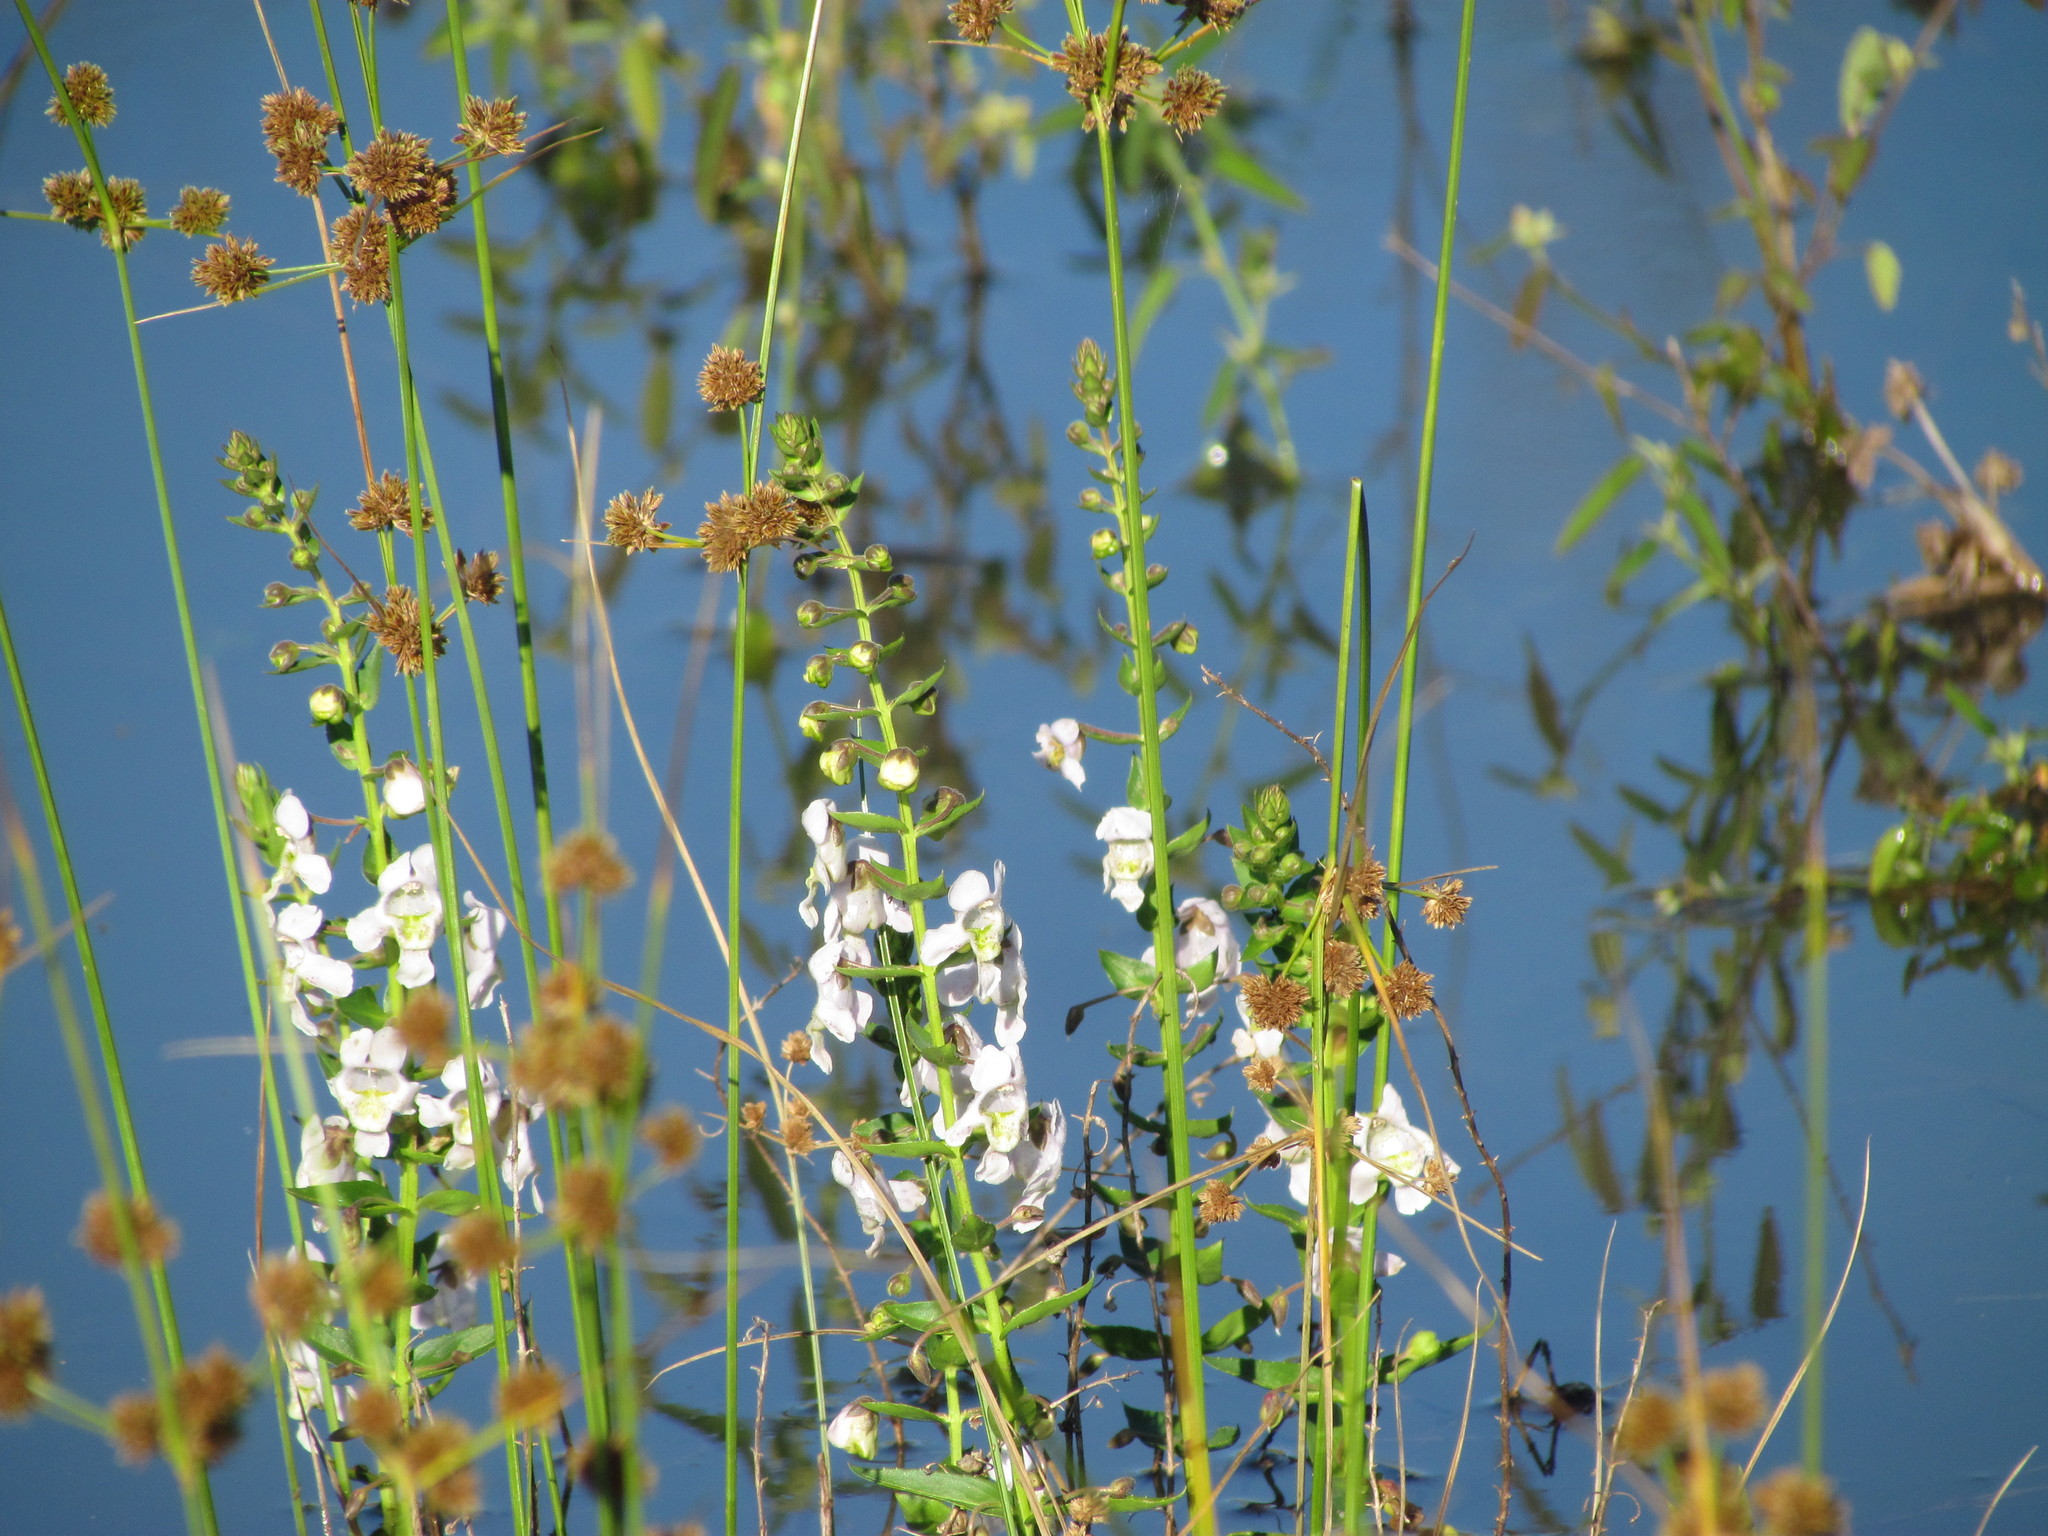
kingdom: Plantae
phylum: Tracheophyta
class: Magnoliopsida
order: Lamiales
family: Plantaginaceae
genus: Angelonia
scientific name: Angelonia salicariifolia
